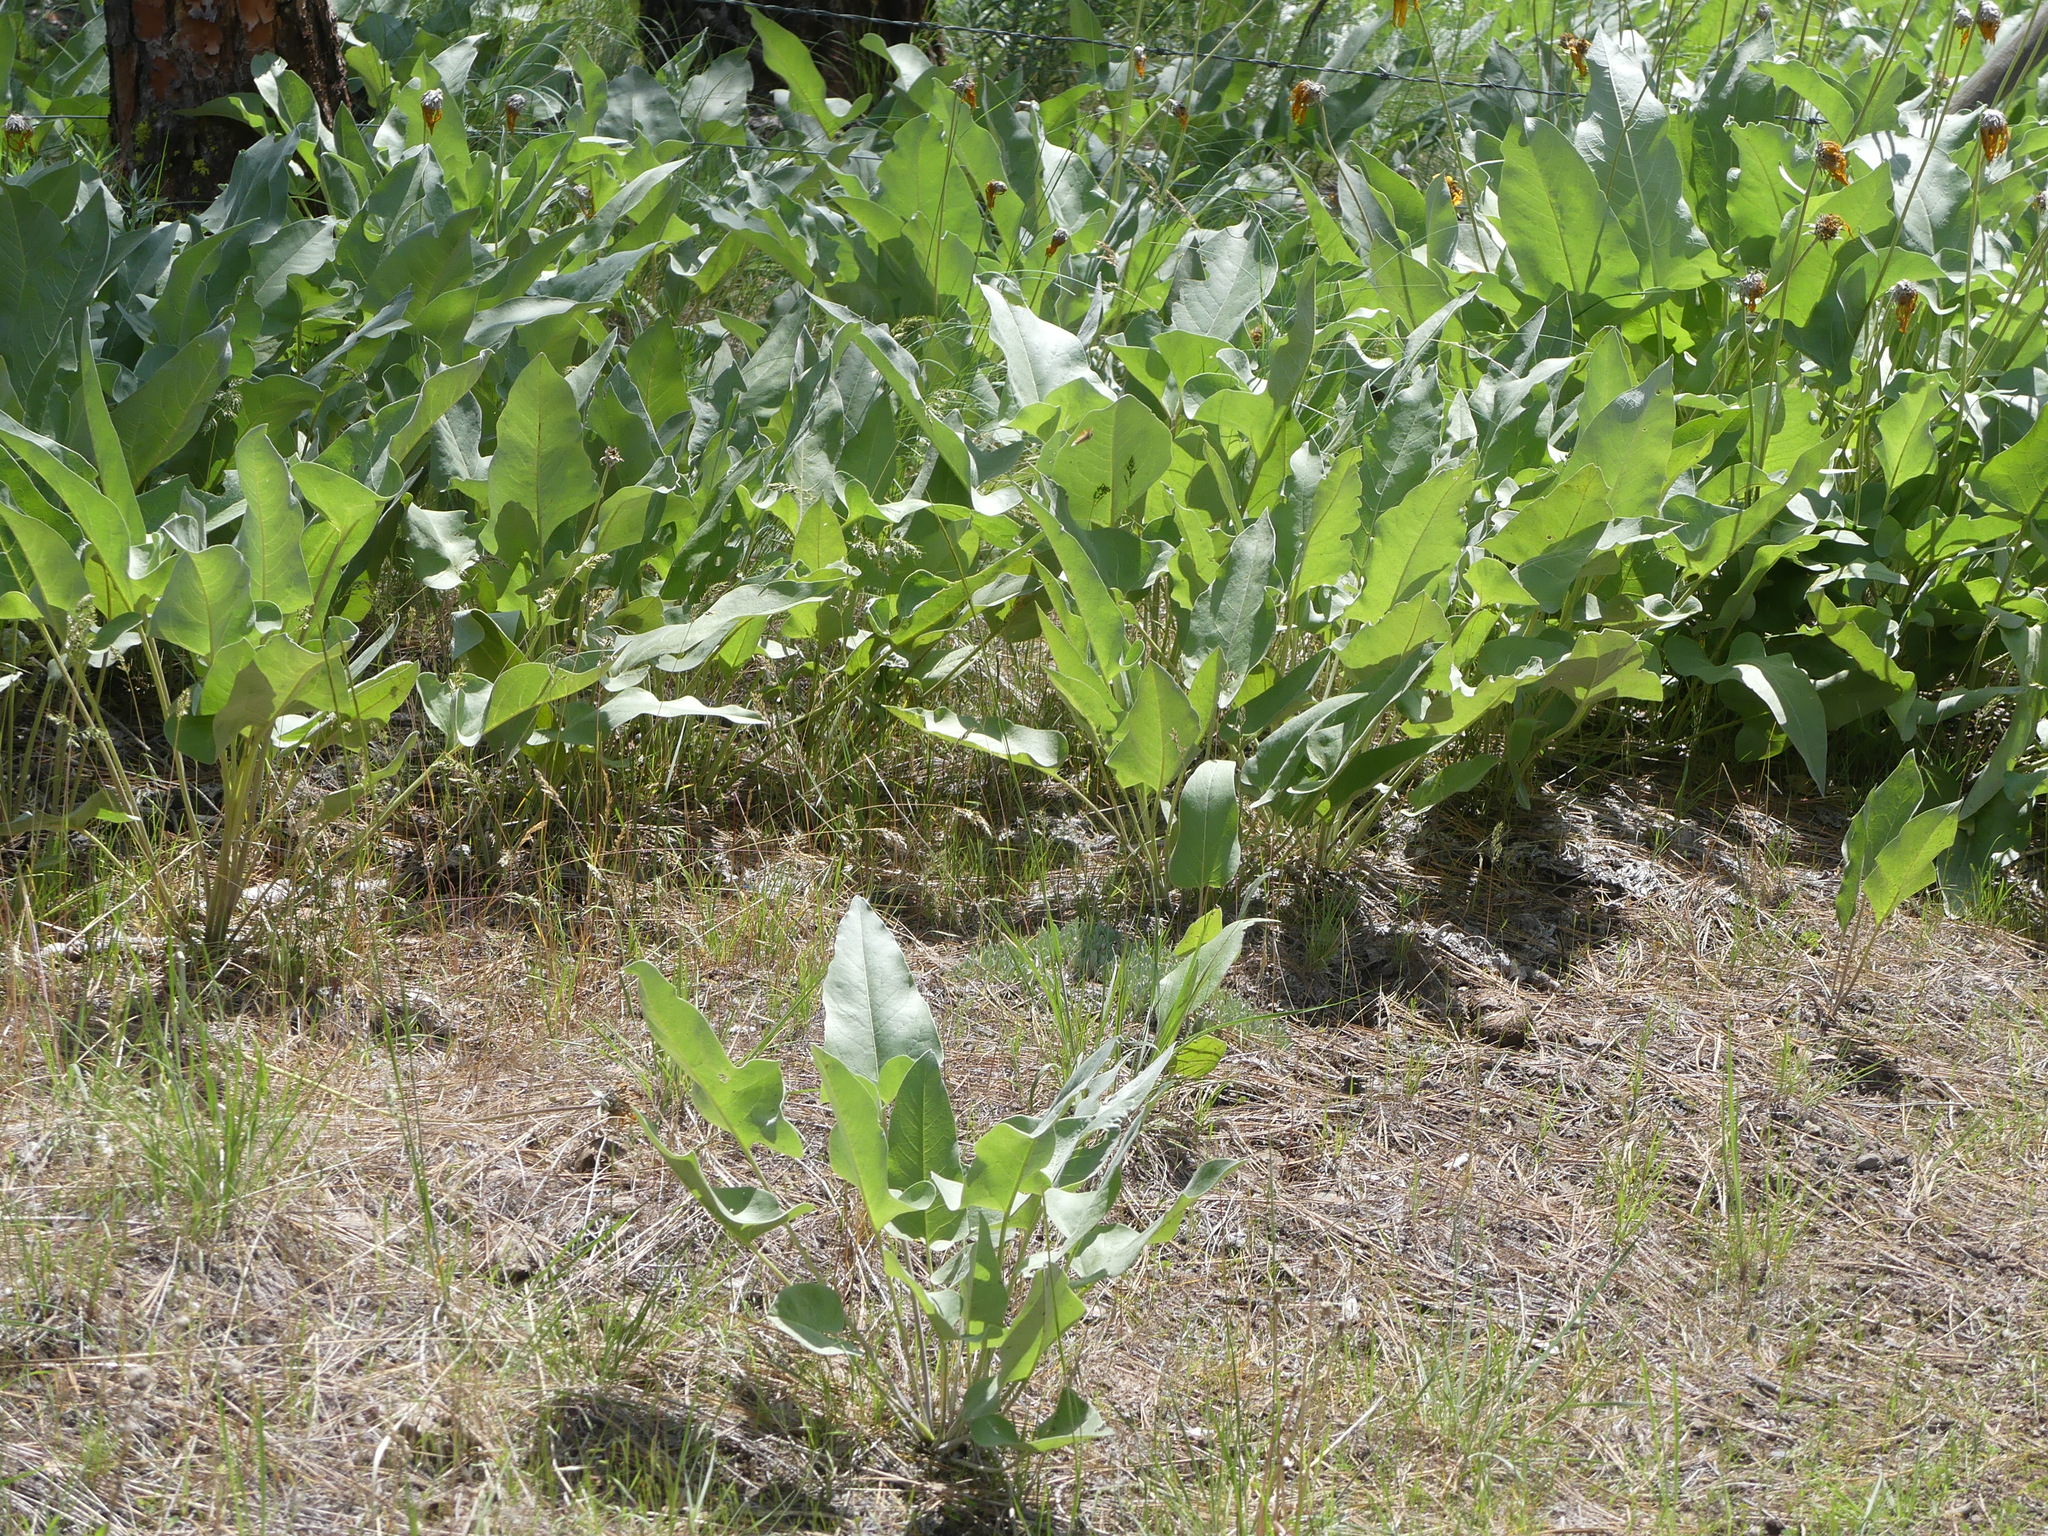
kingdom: Plantae
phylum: Tracheophyta
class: Magnoliopsida
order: Asterales
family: Asteraceae
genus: Wyethia
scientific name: Wyethia sagittata
